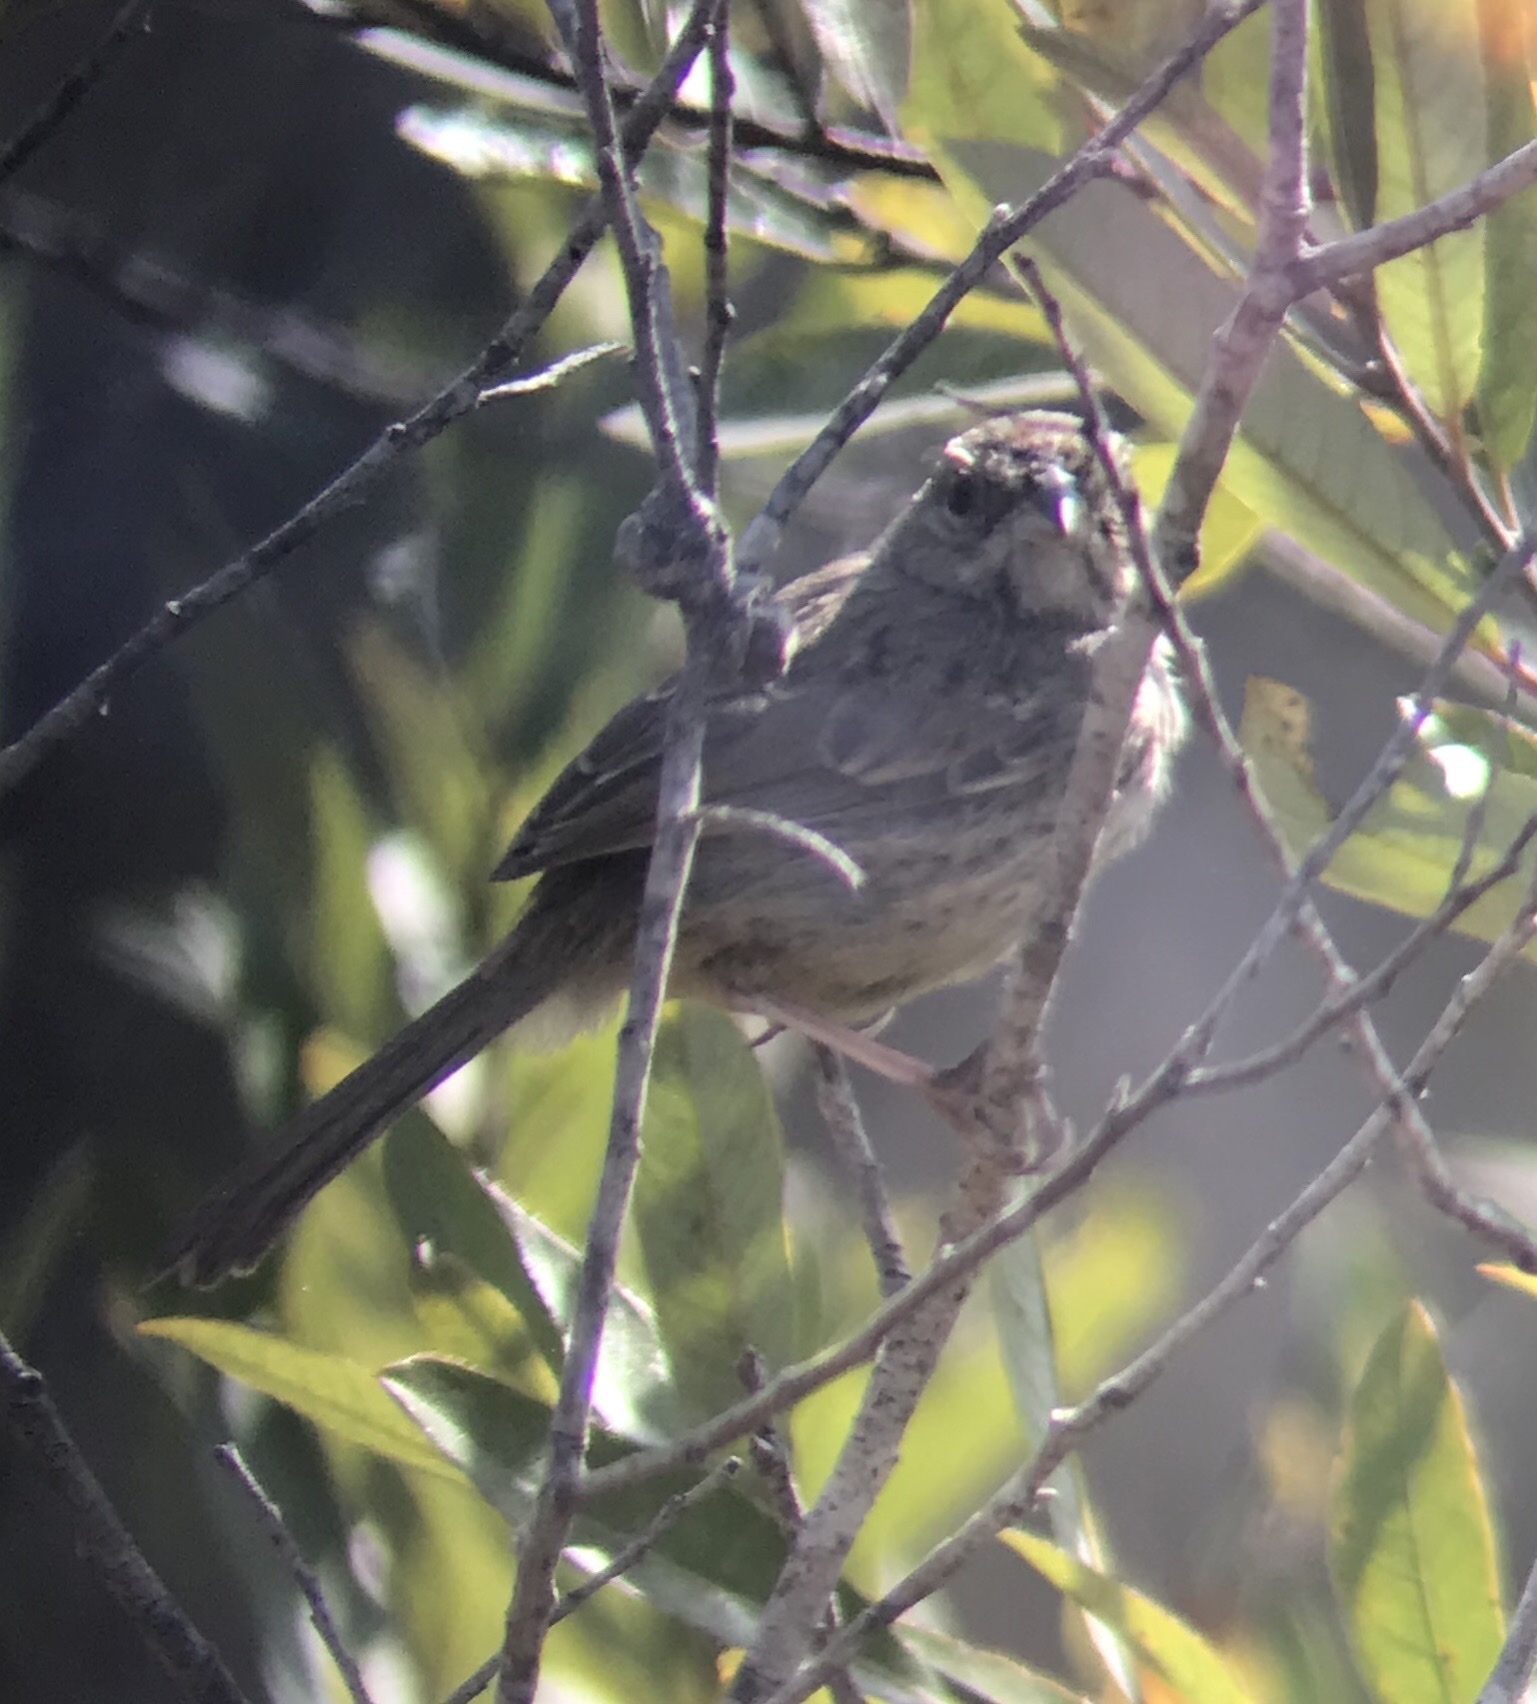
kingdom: Animalia
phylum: Chordata
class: Aves
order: Passeriformes
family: Passerellidae
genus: Aimophila
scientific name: Aimophila ruficeps
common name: Rufous-crowned sparrow
